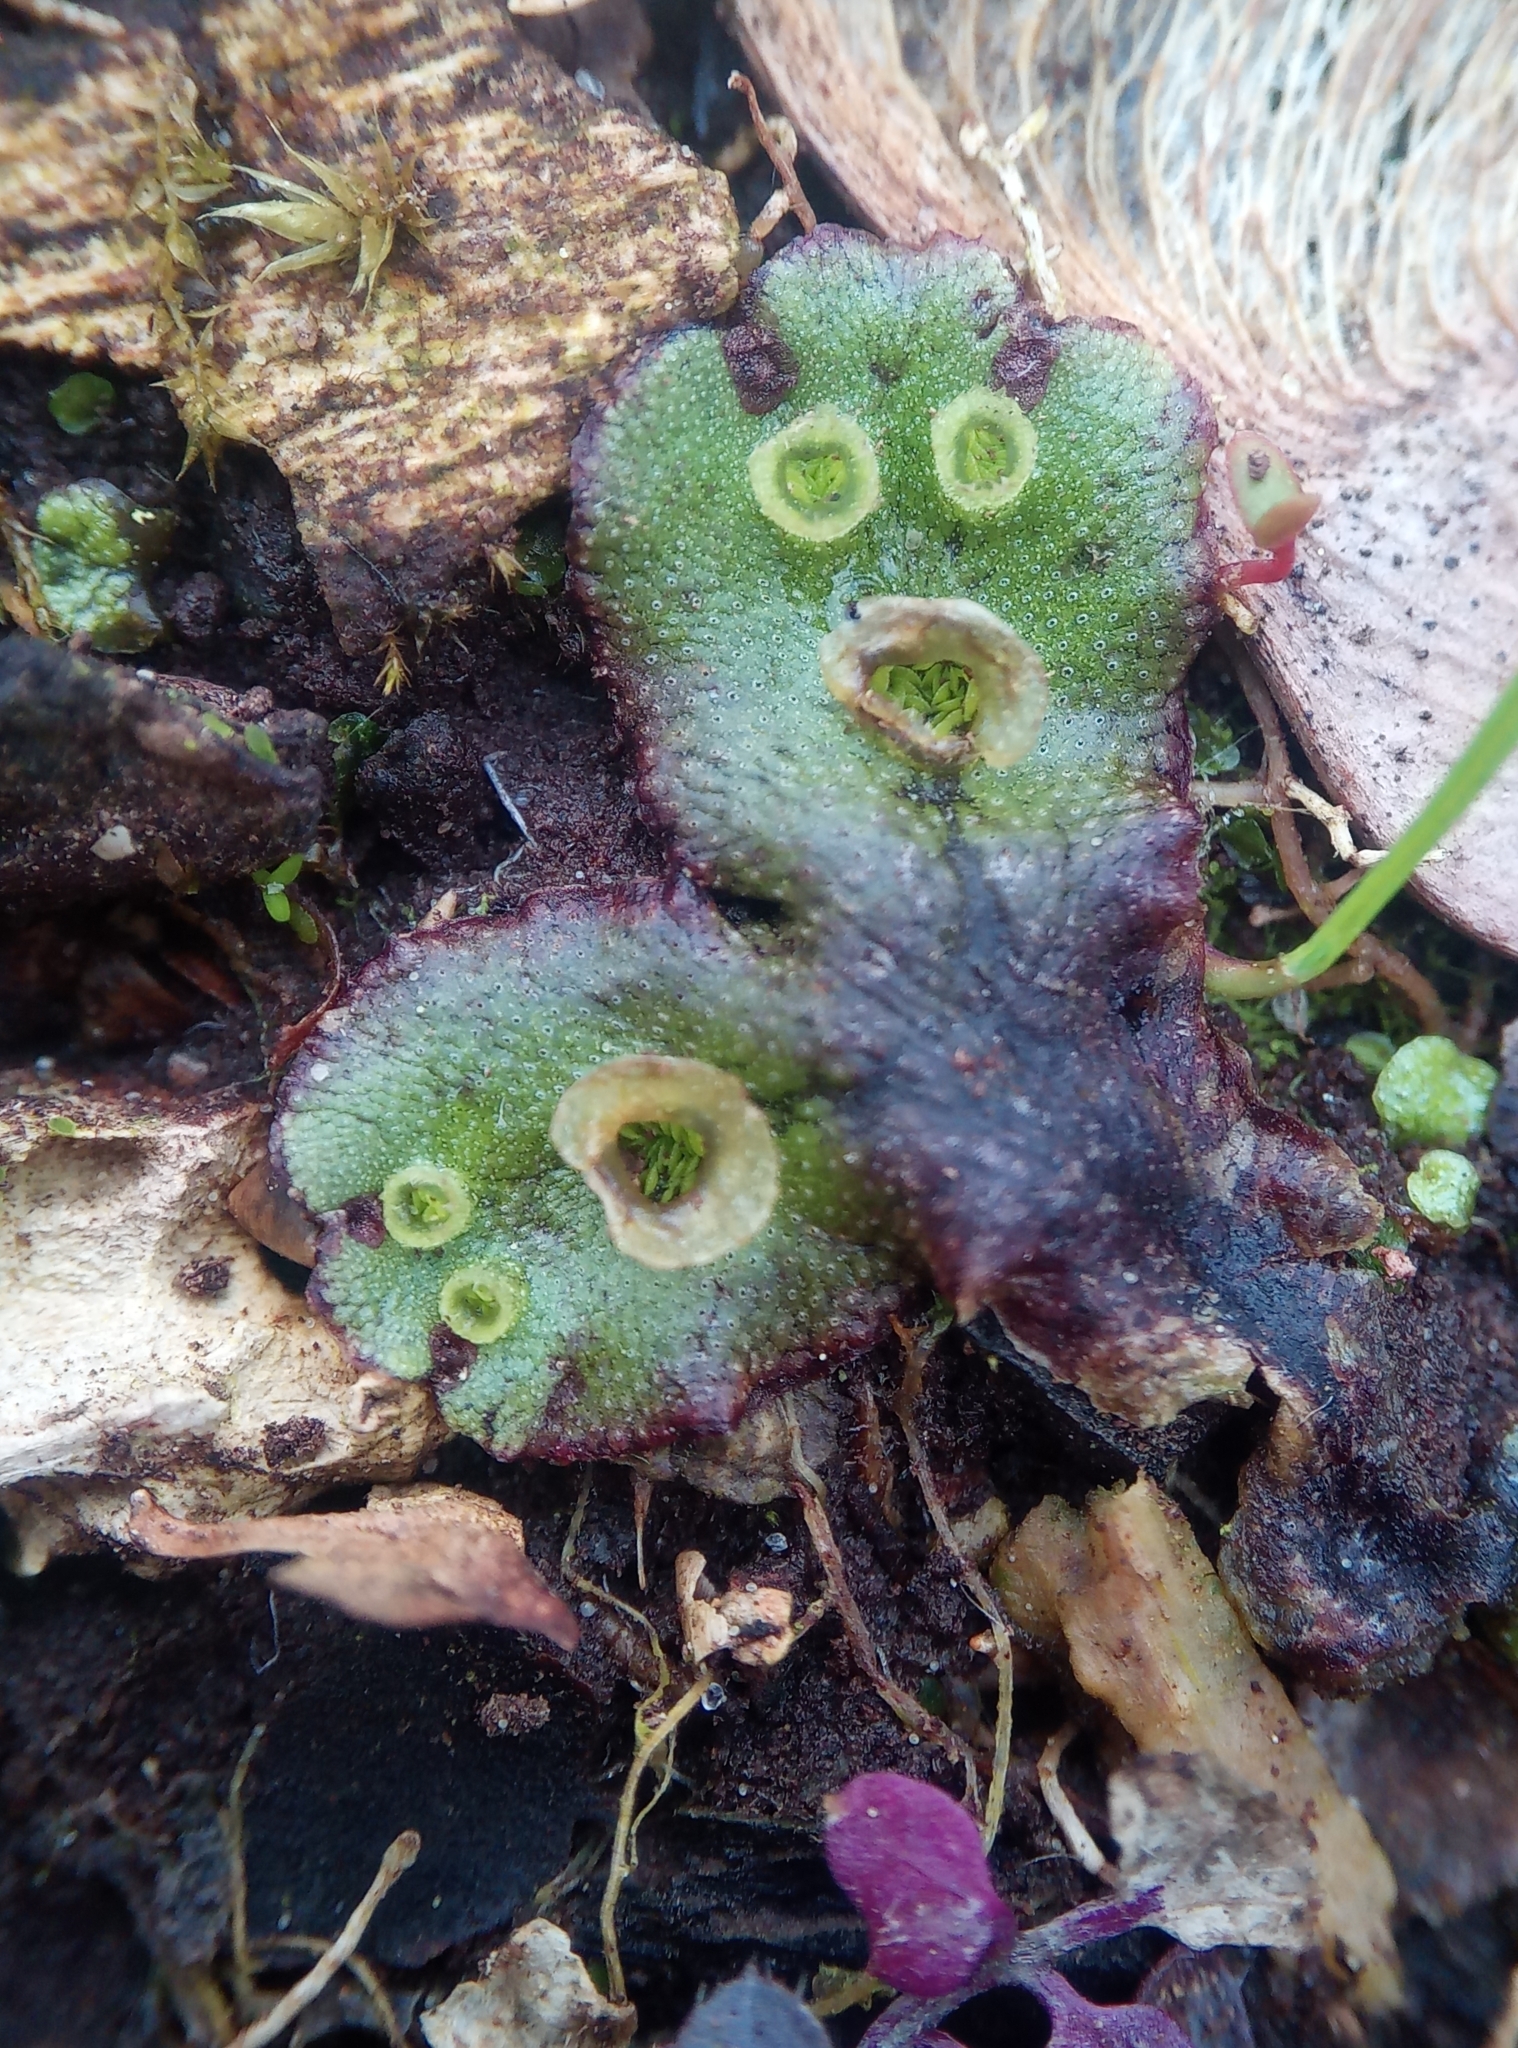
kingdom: Plantae
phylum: Marchantiophyta
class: Marchantiopsida
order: Marchantiales
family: Marchantiaceae
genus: Marchantia
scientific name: Marchantia polymorpha
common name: Common liverwort
